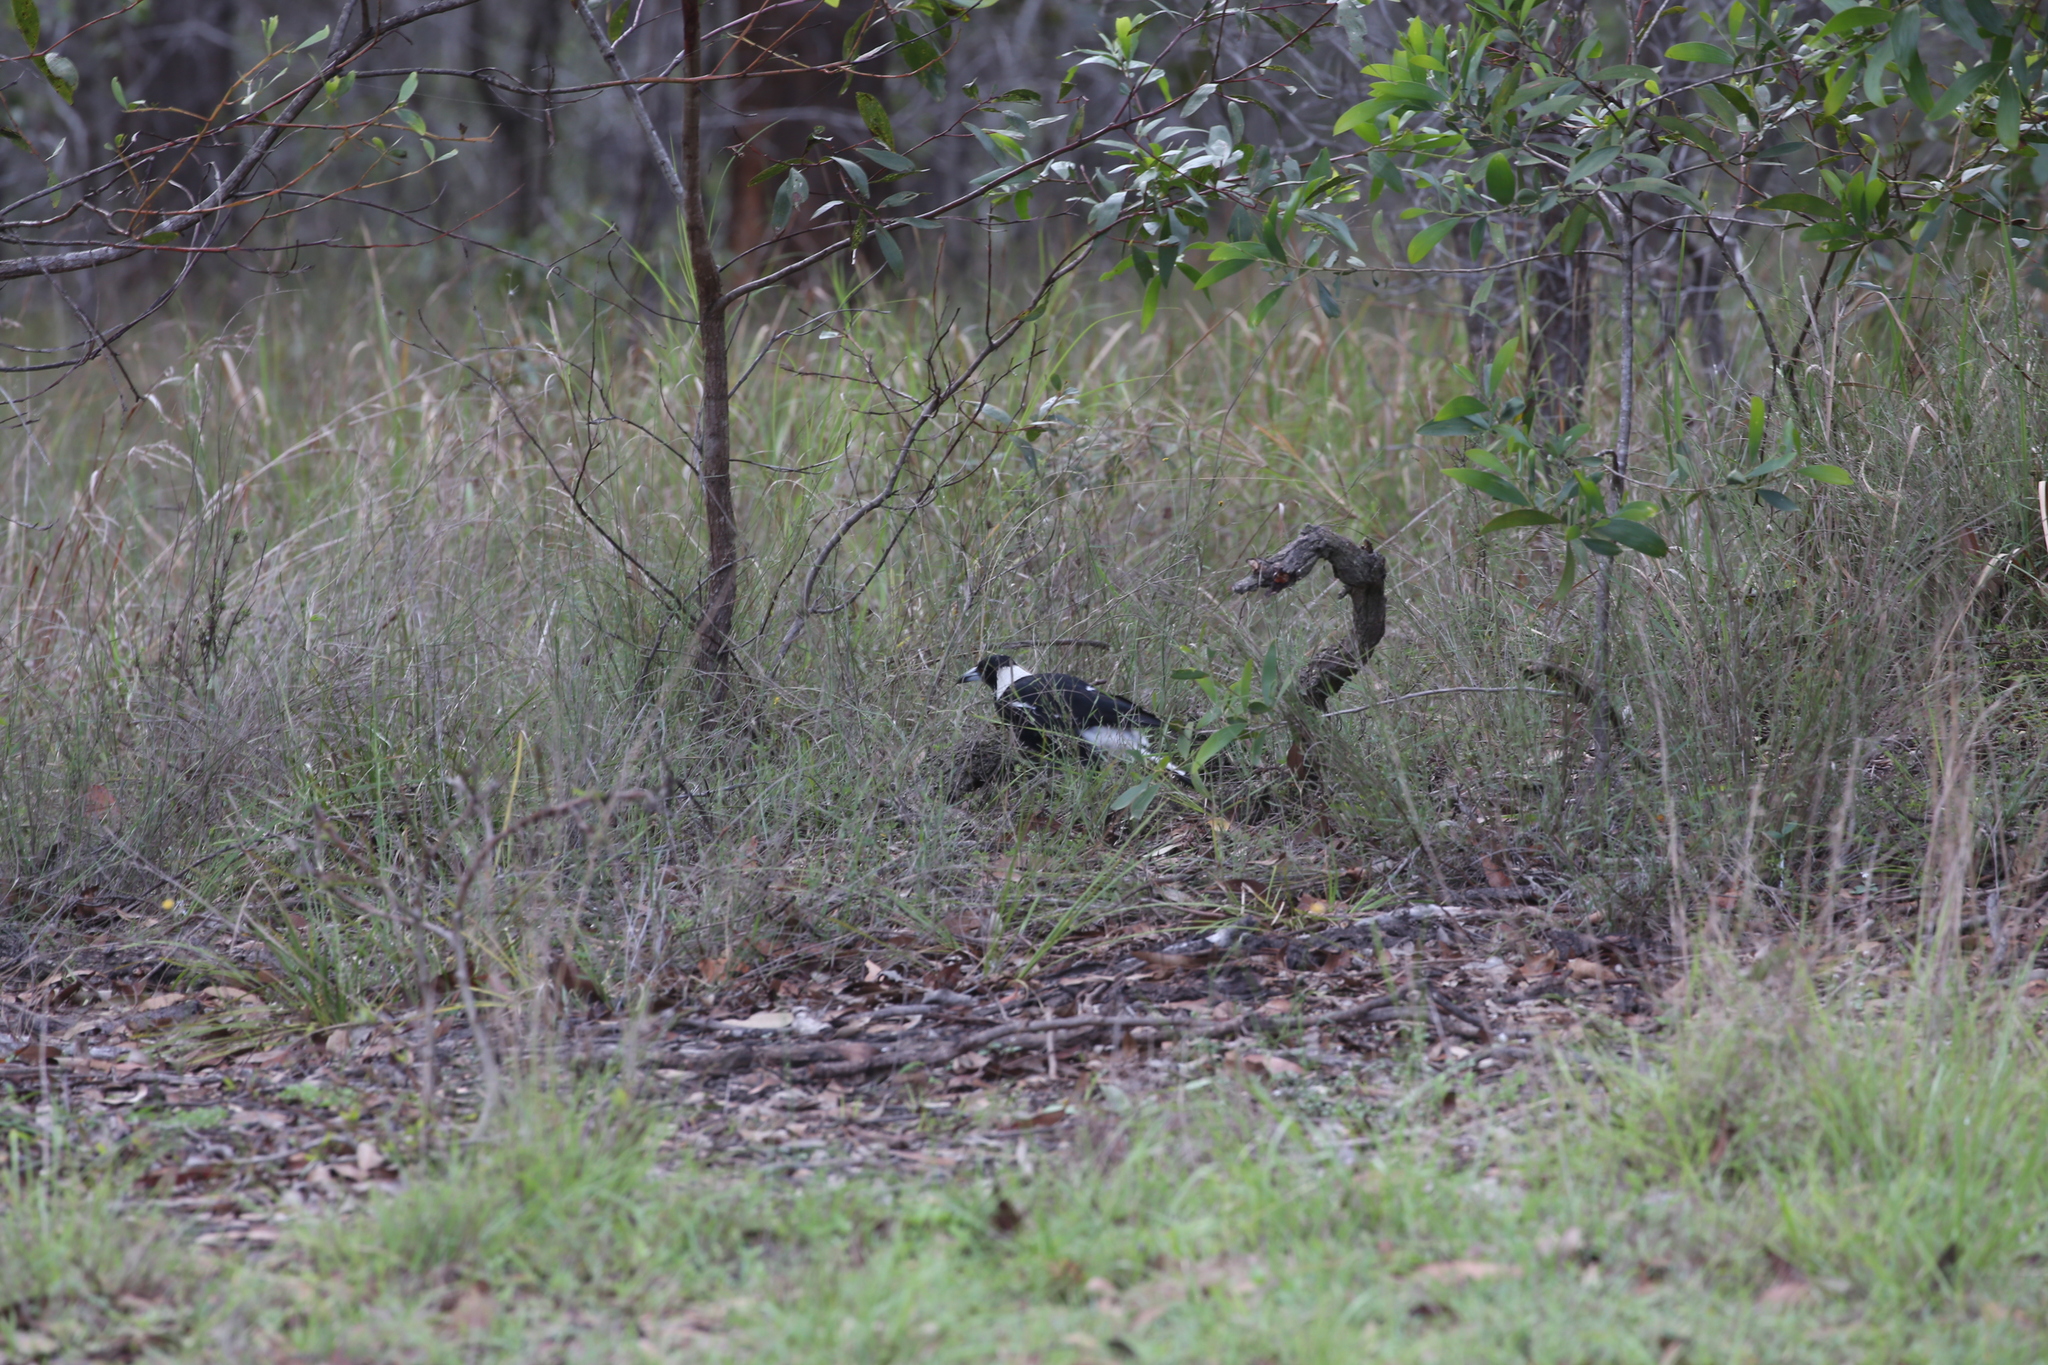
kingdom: Animalia
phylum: Chordata
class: Aves
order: Passeriformes
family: Cracticidae
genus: Gymnorhina
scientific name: Gymnorhina tibicen
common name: Australian magpie
